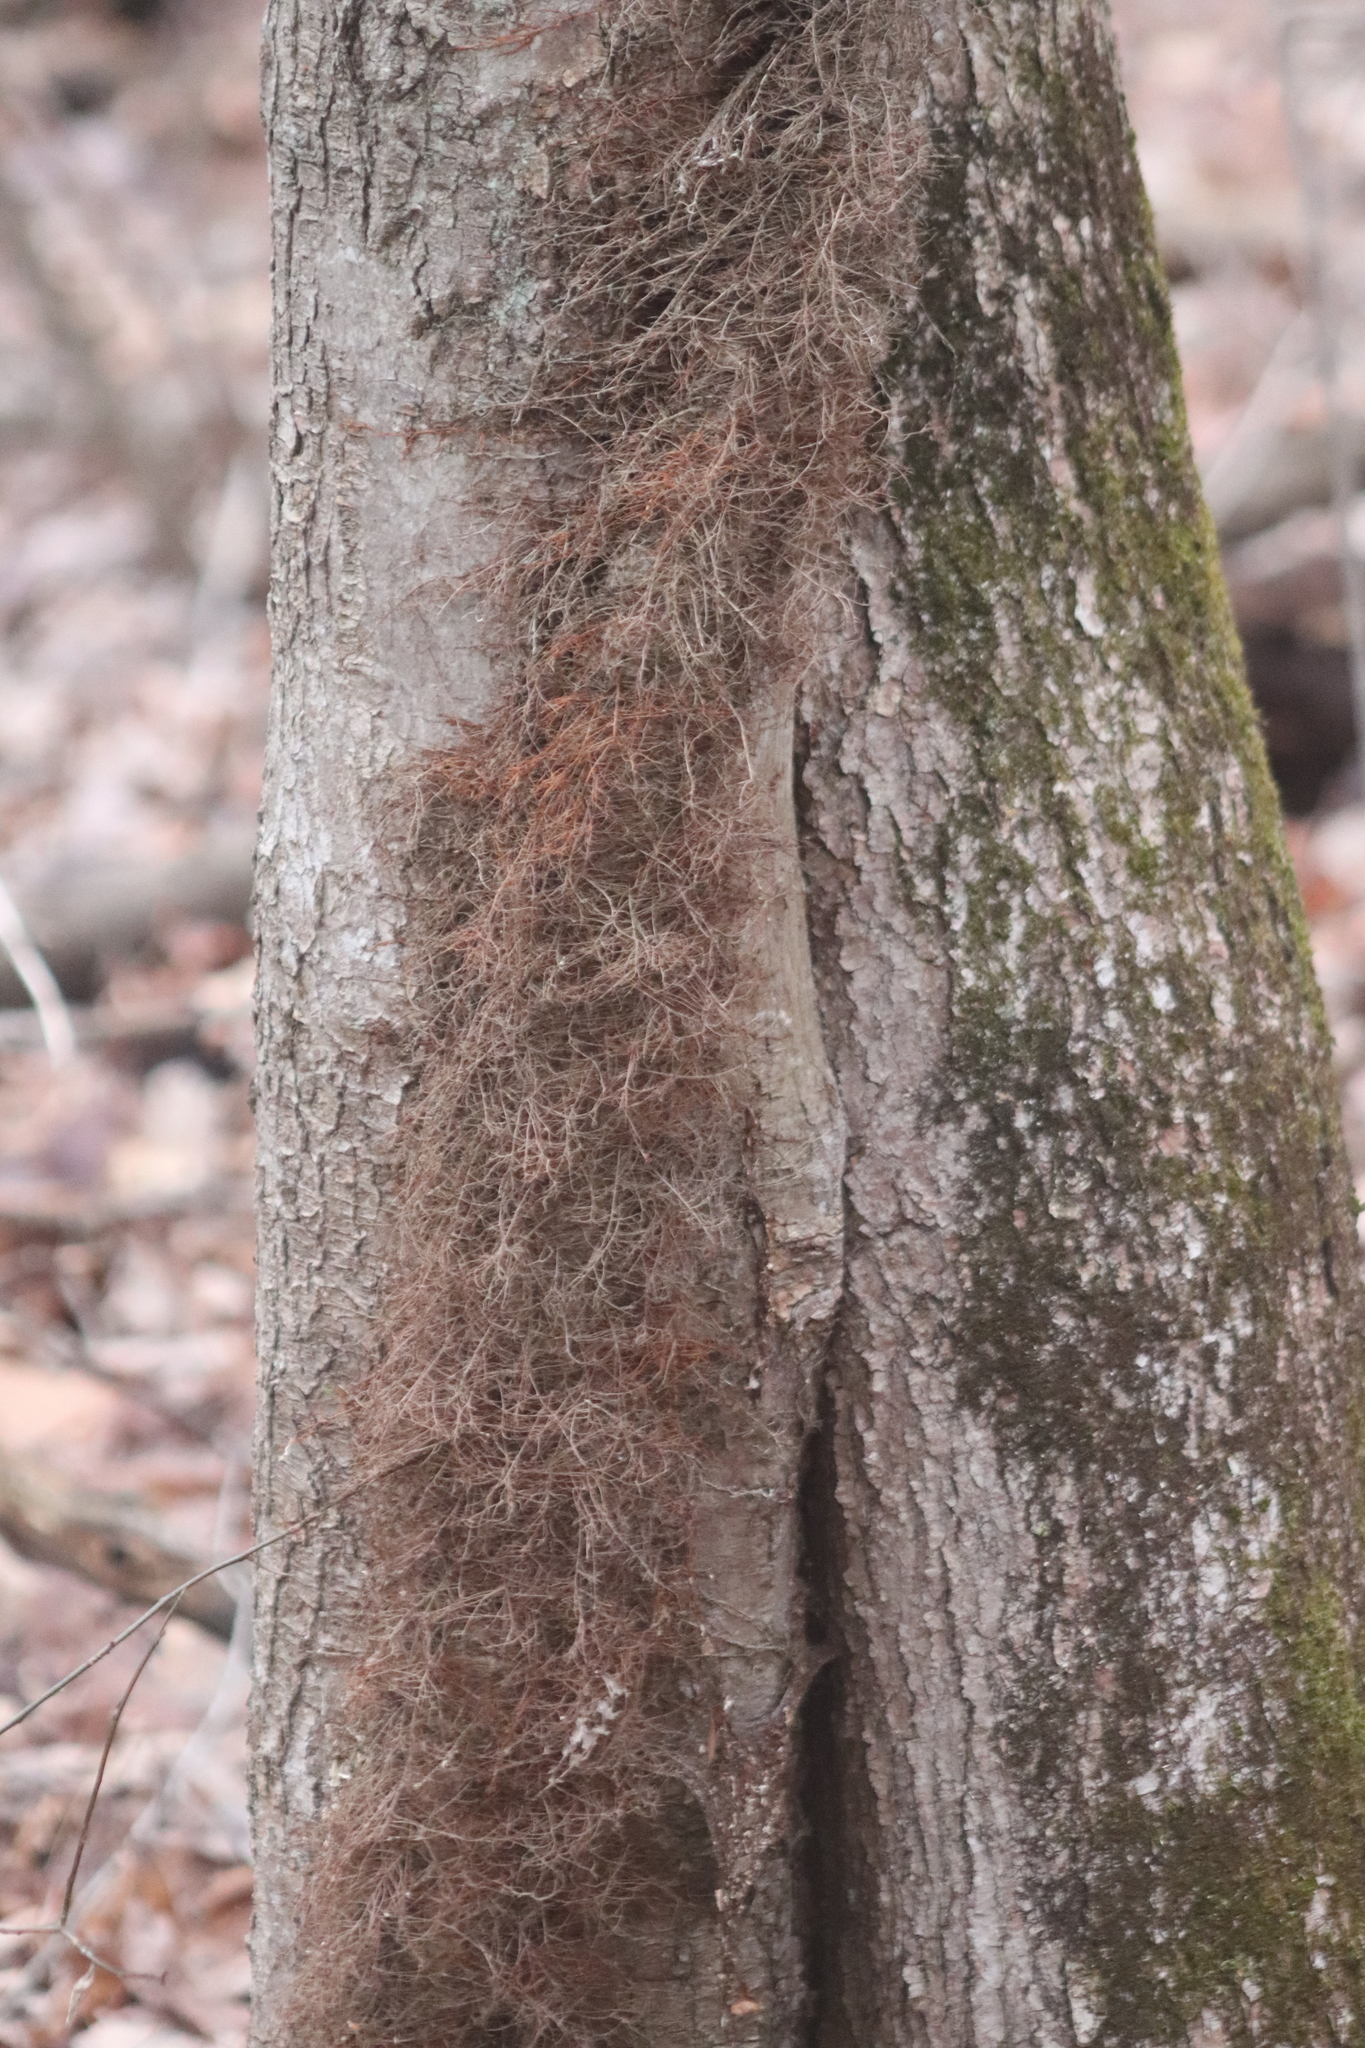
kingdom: Plantae
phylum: Tracheophyta
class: Magnoliopsida
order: Sapindales
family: Anacardiaceae
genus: Toxicodendron
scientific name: Toxicodendron radicans
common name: Poison ivy
